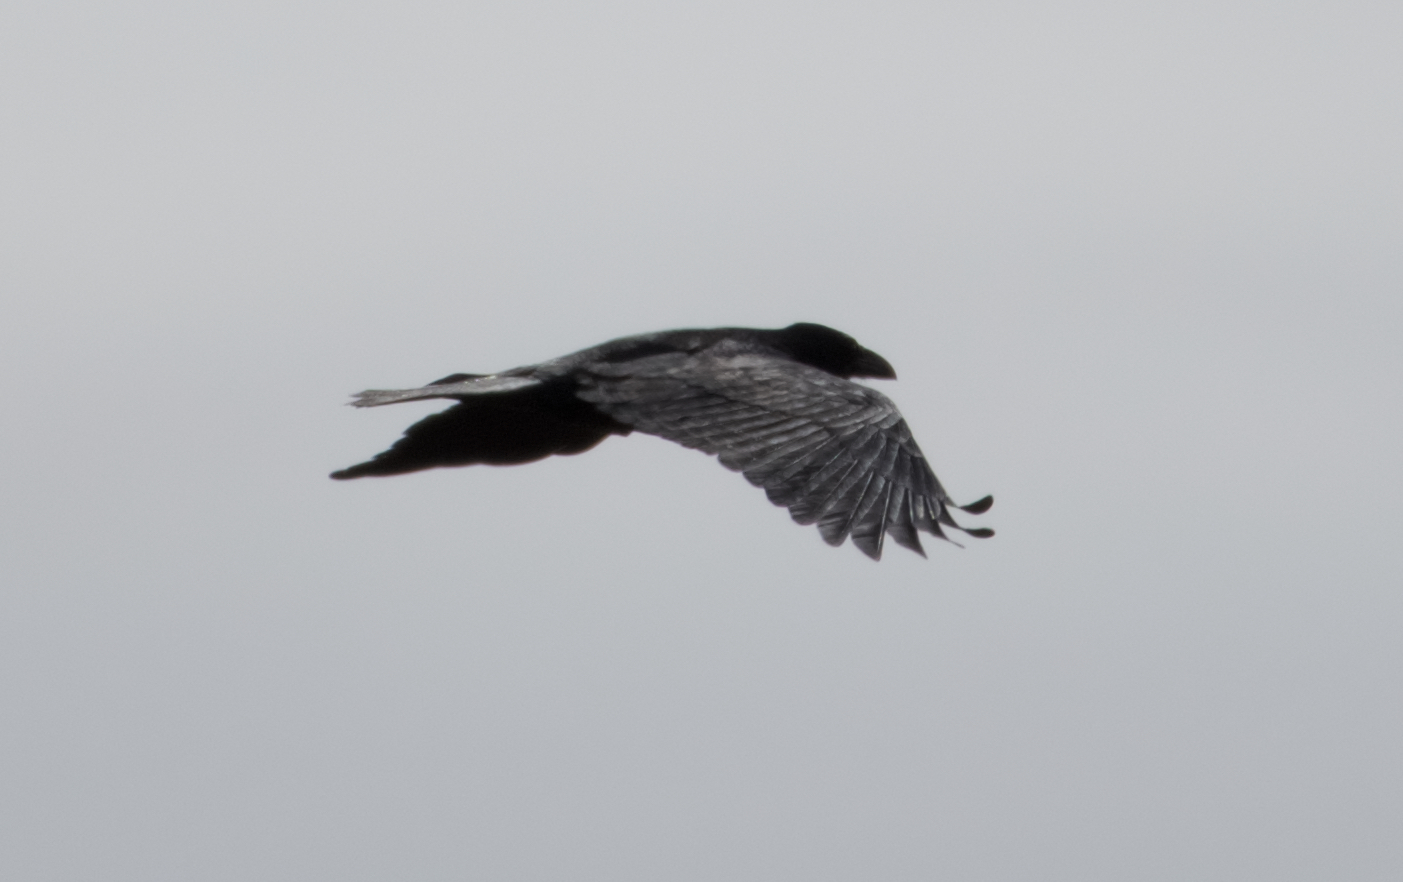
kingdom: Animalia
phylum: Chordata
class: Aves
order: Passeriformes
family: Corvidae
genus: Corvus
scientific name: Corvus corax
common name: Common raven
